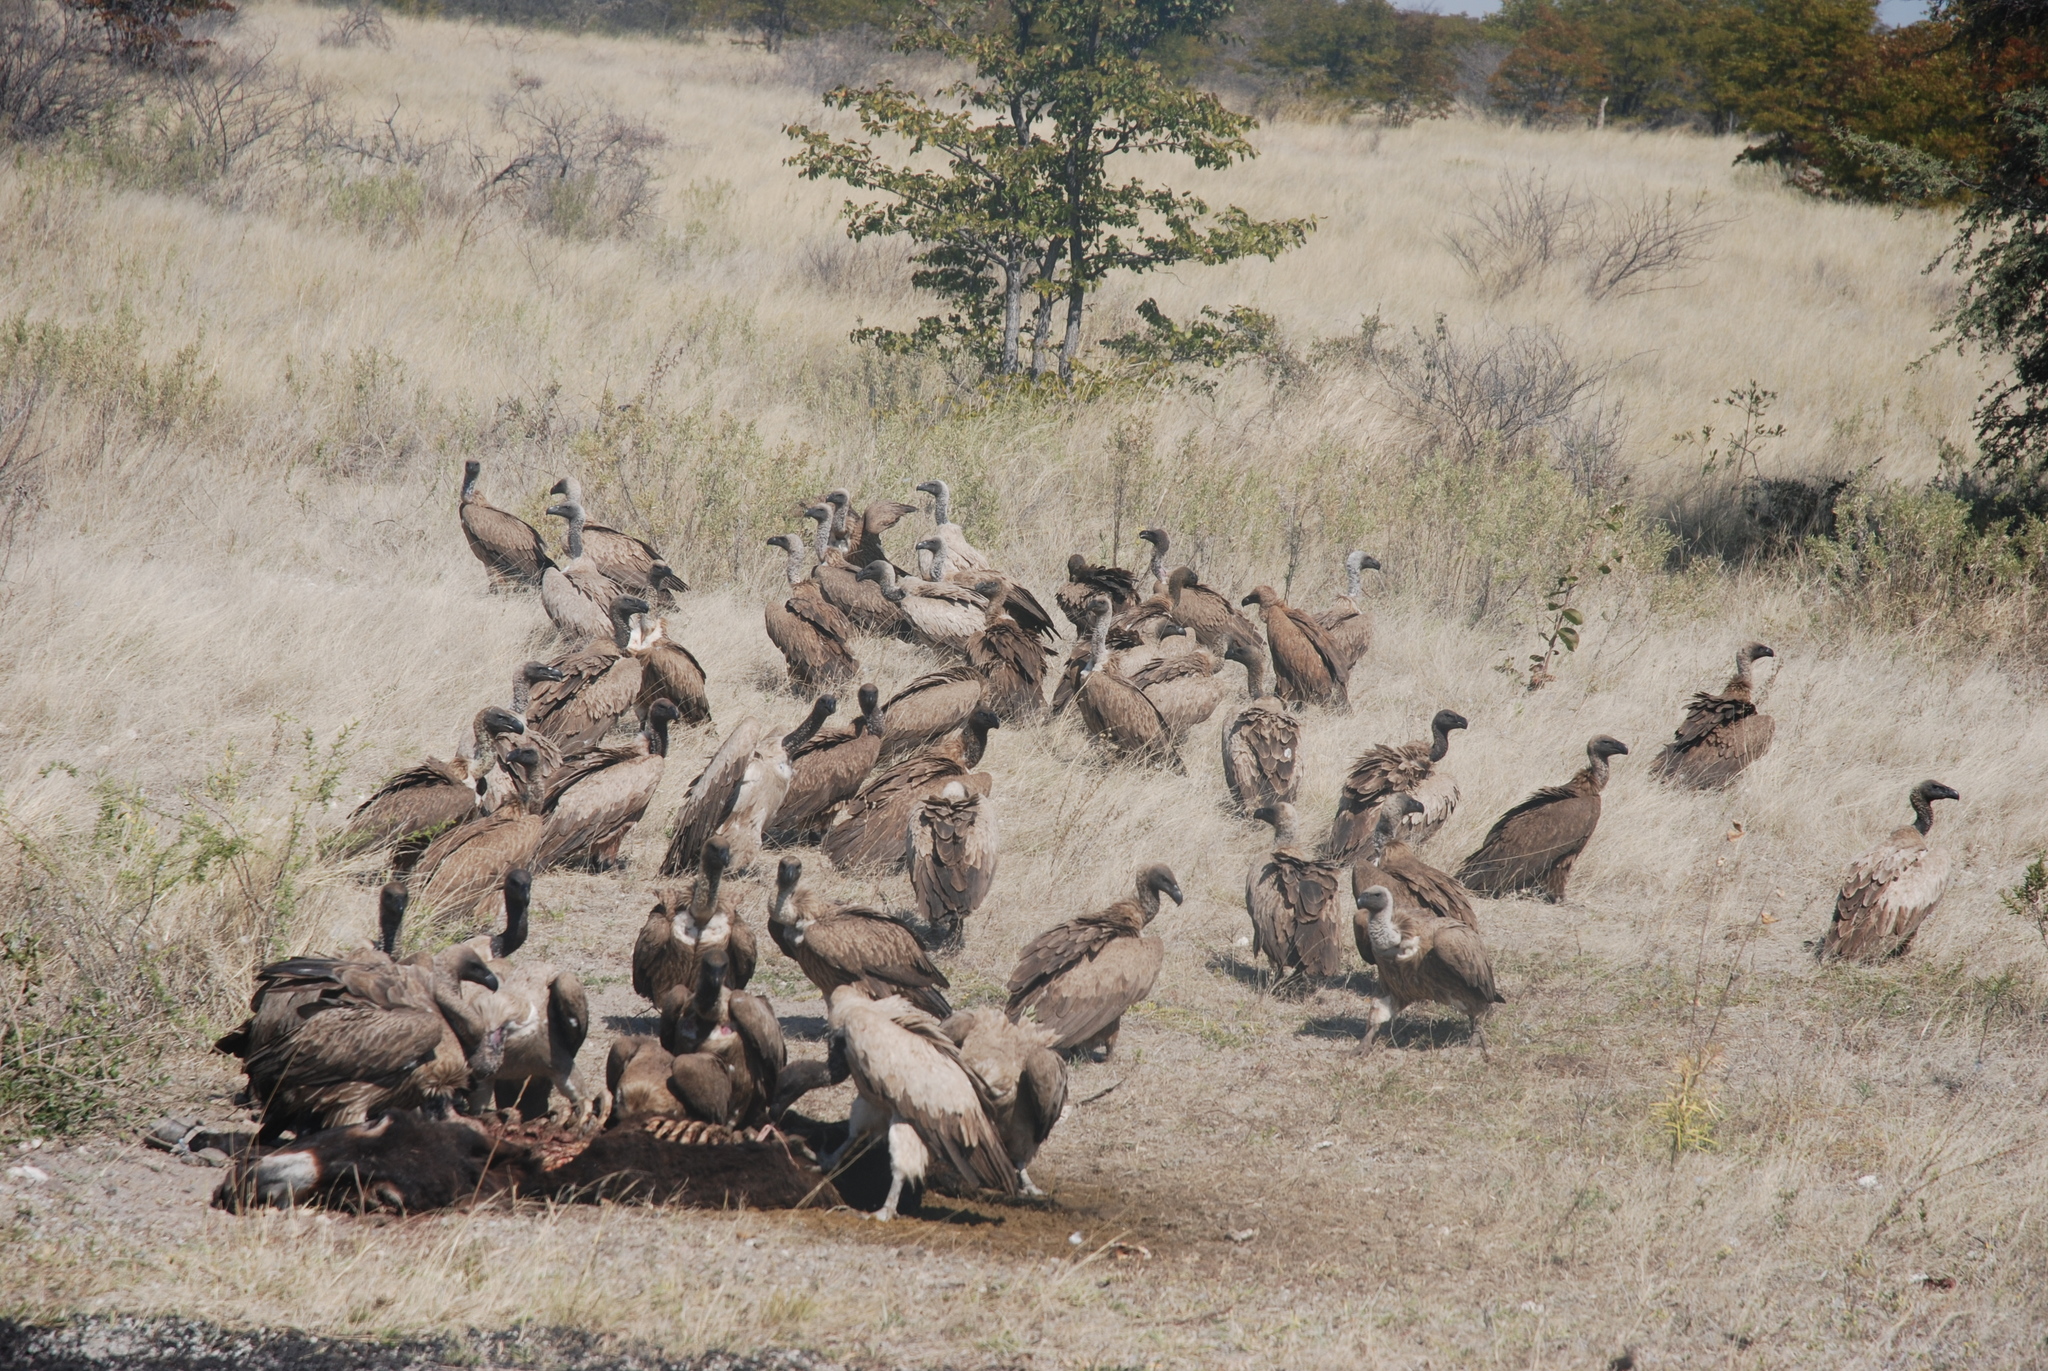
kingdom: Animalia
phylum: Chordata
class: Aves
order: Accipitriformes
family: Accipitridae
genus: Gyps
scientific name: Gyps africanus
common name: White-backed vulture
